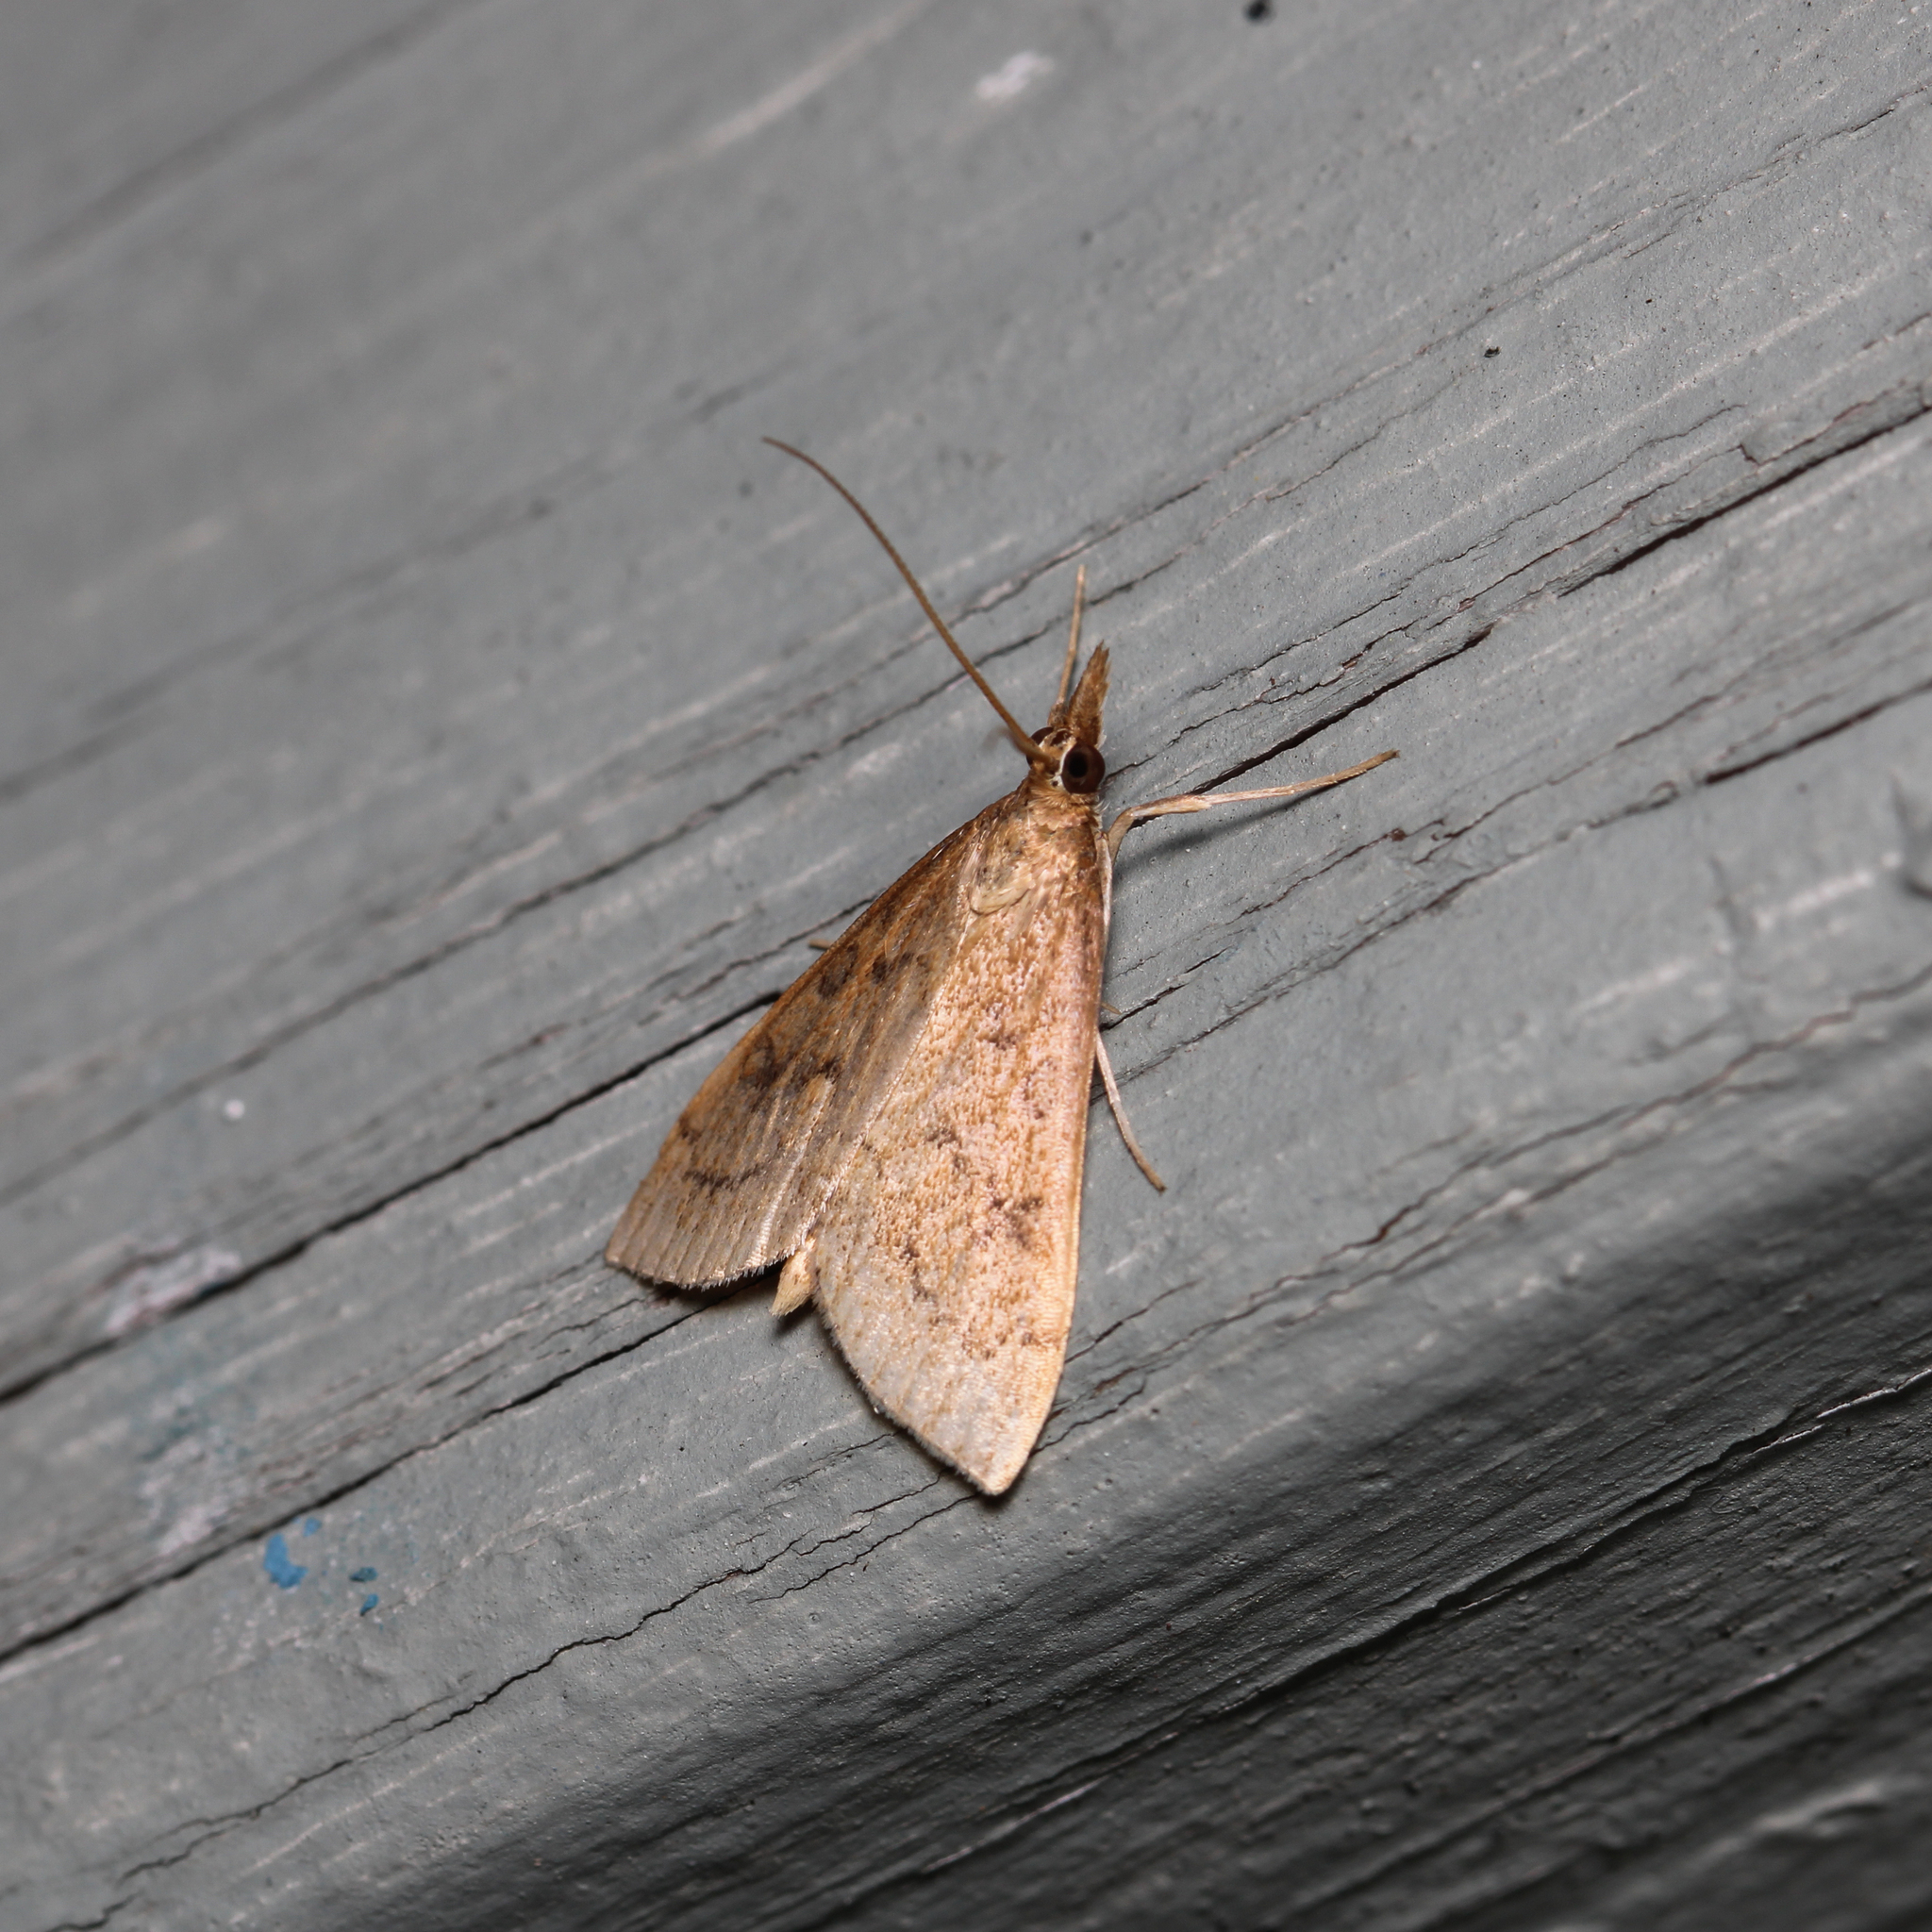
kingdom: Animalia
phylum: Arthropoda
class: Insecta
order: Lepidoptera
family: Crambidae
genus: Udea
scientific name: Udea rubigalis
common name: Celery leaftier moth
